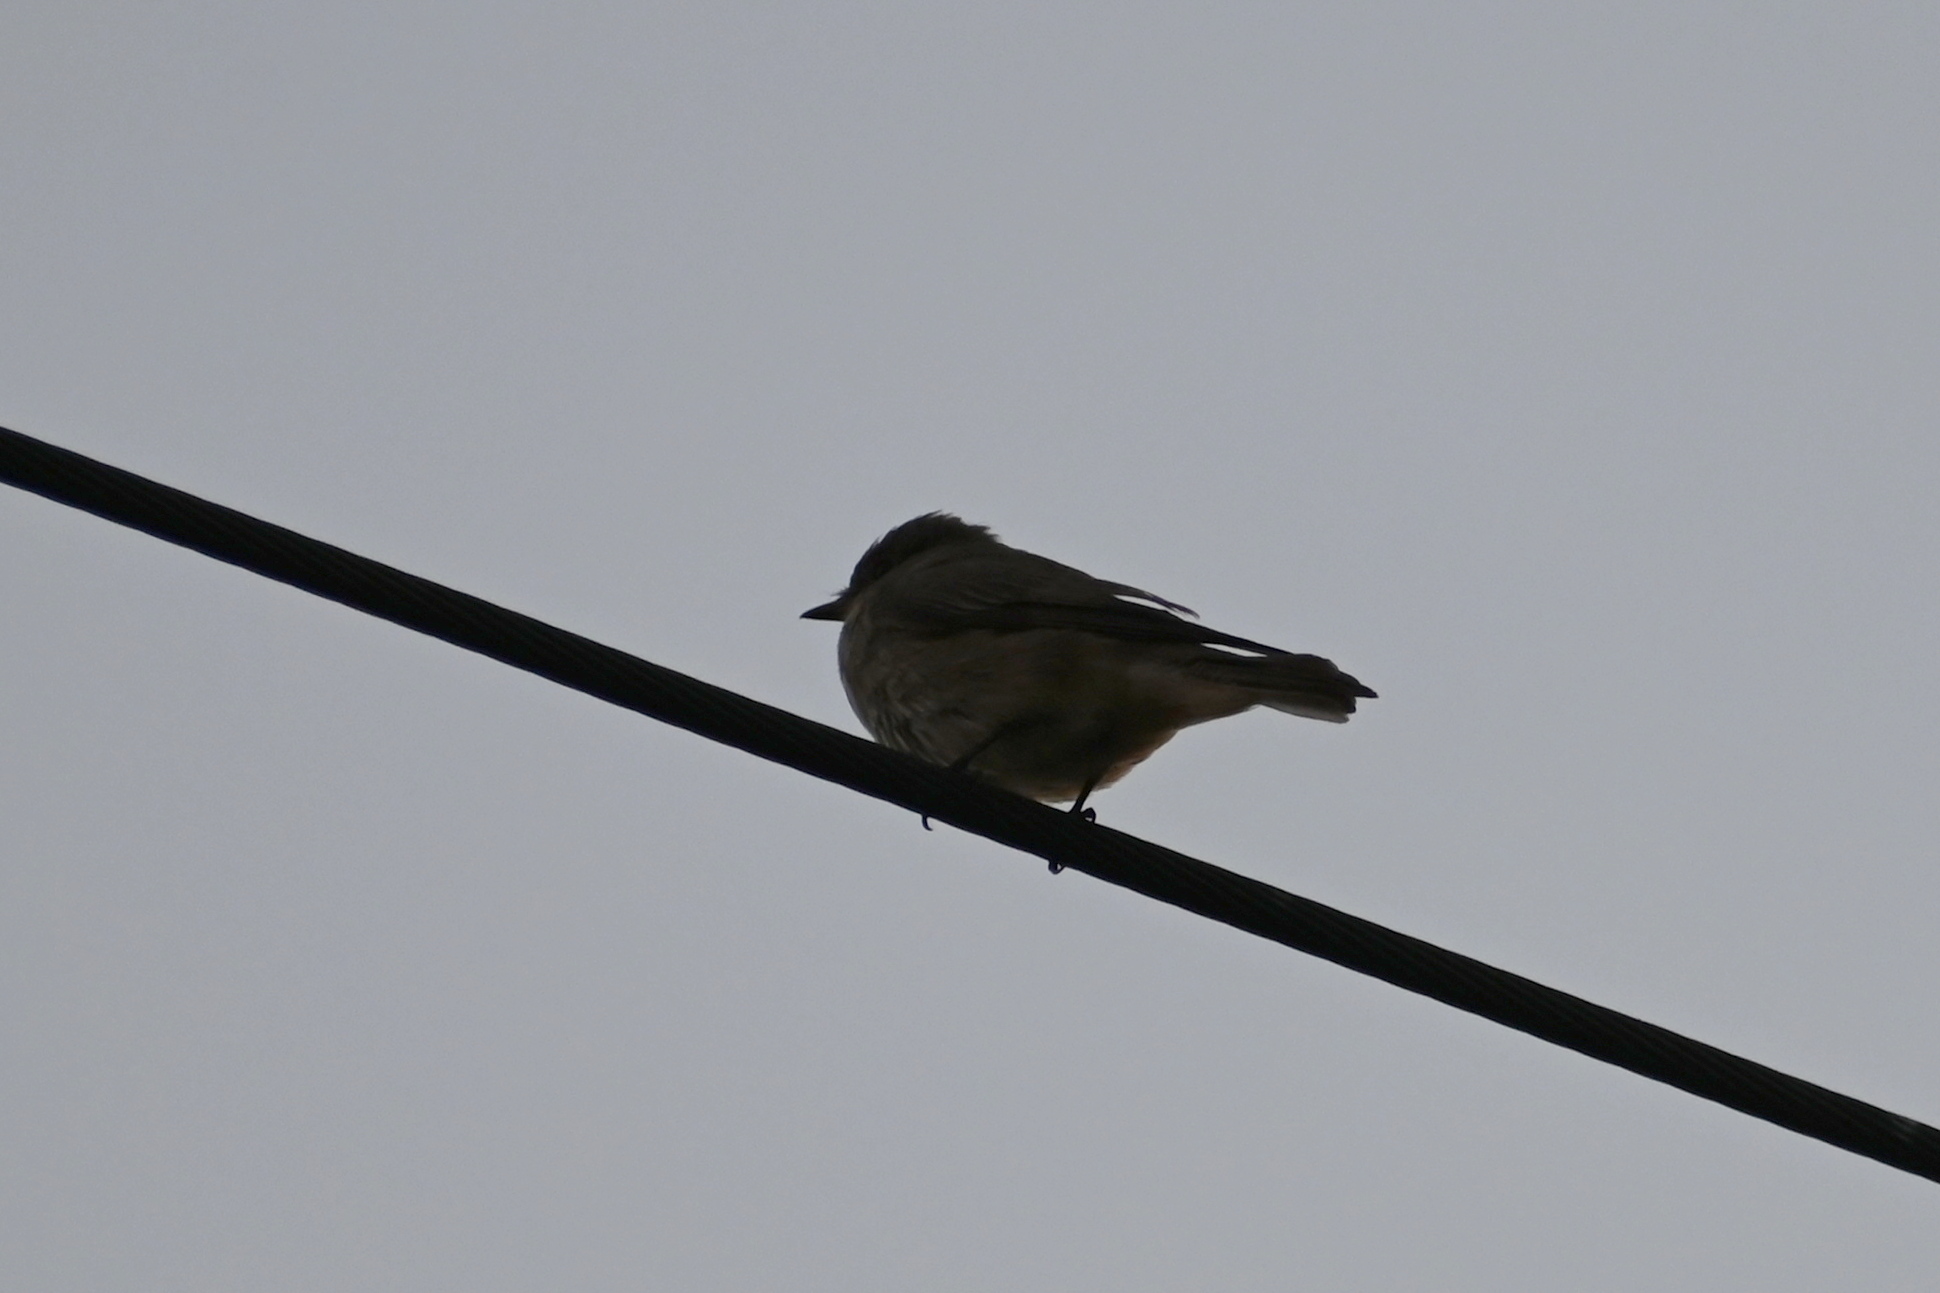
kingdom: Animalia
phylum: Chordata
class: Aves
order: Passeriformes
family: Muscicapidae
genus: Muscicapa
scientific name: Muscicapa striata
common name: Spotted flycatcher
